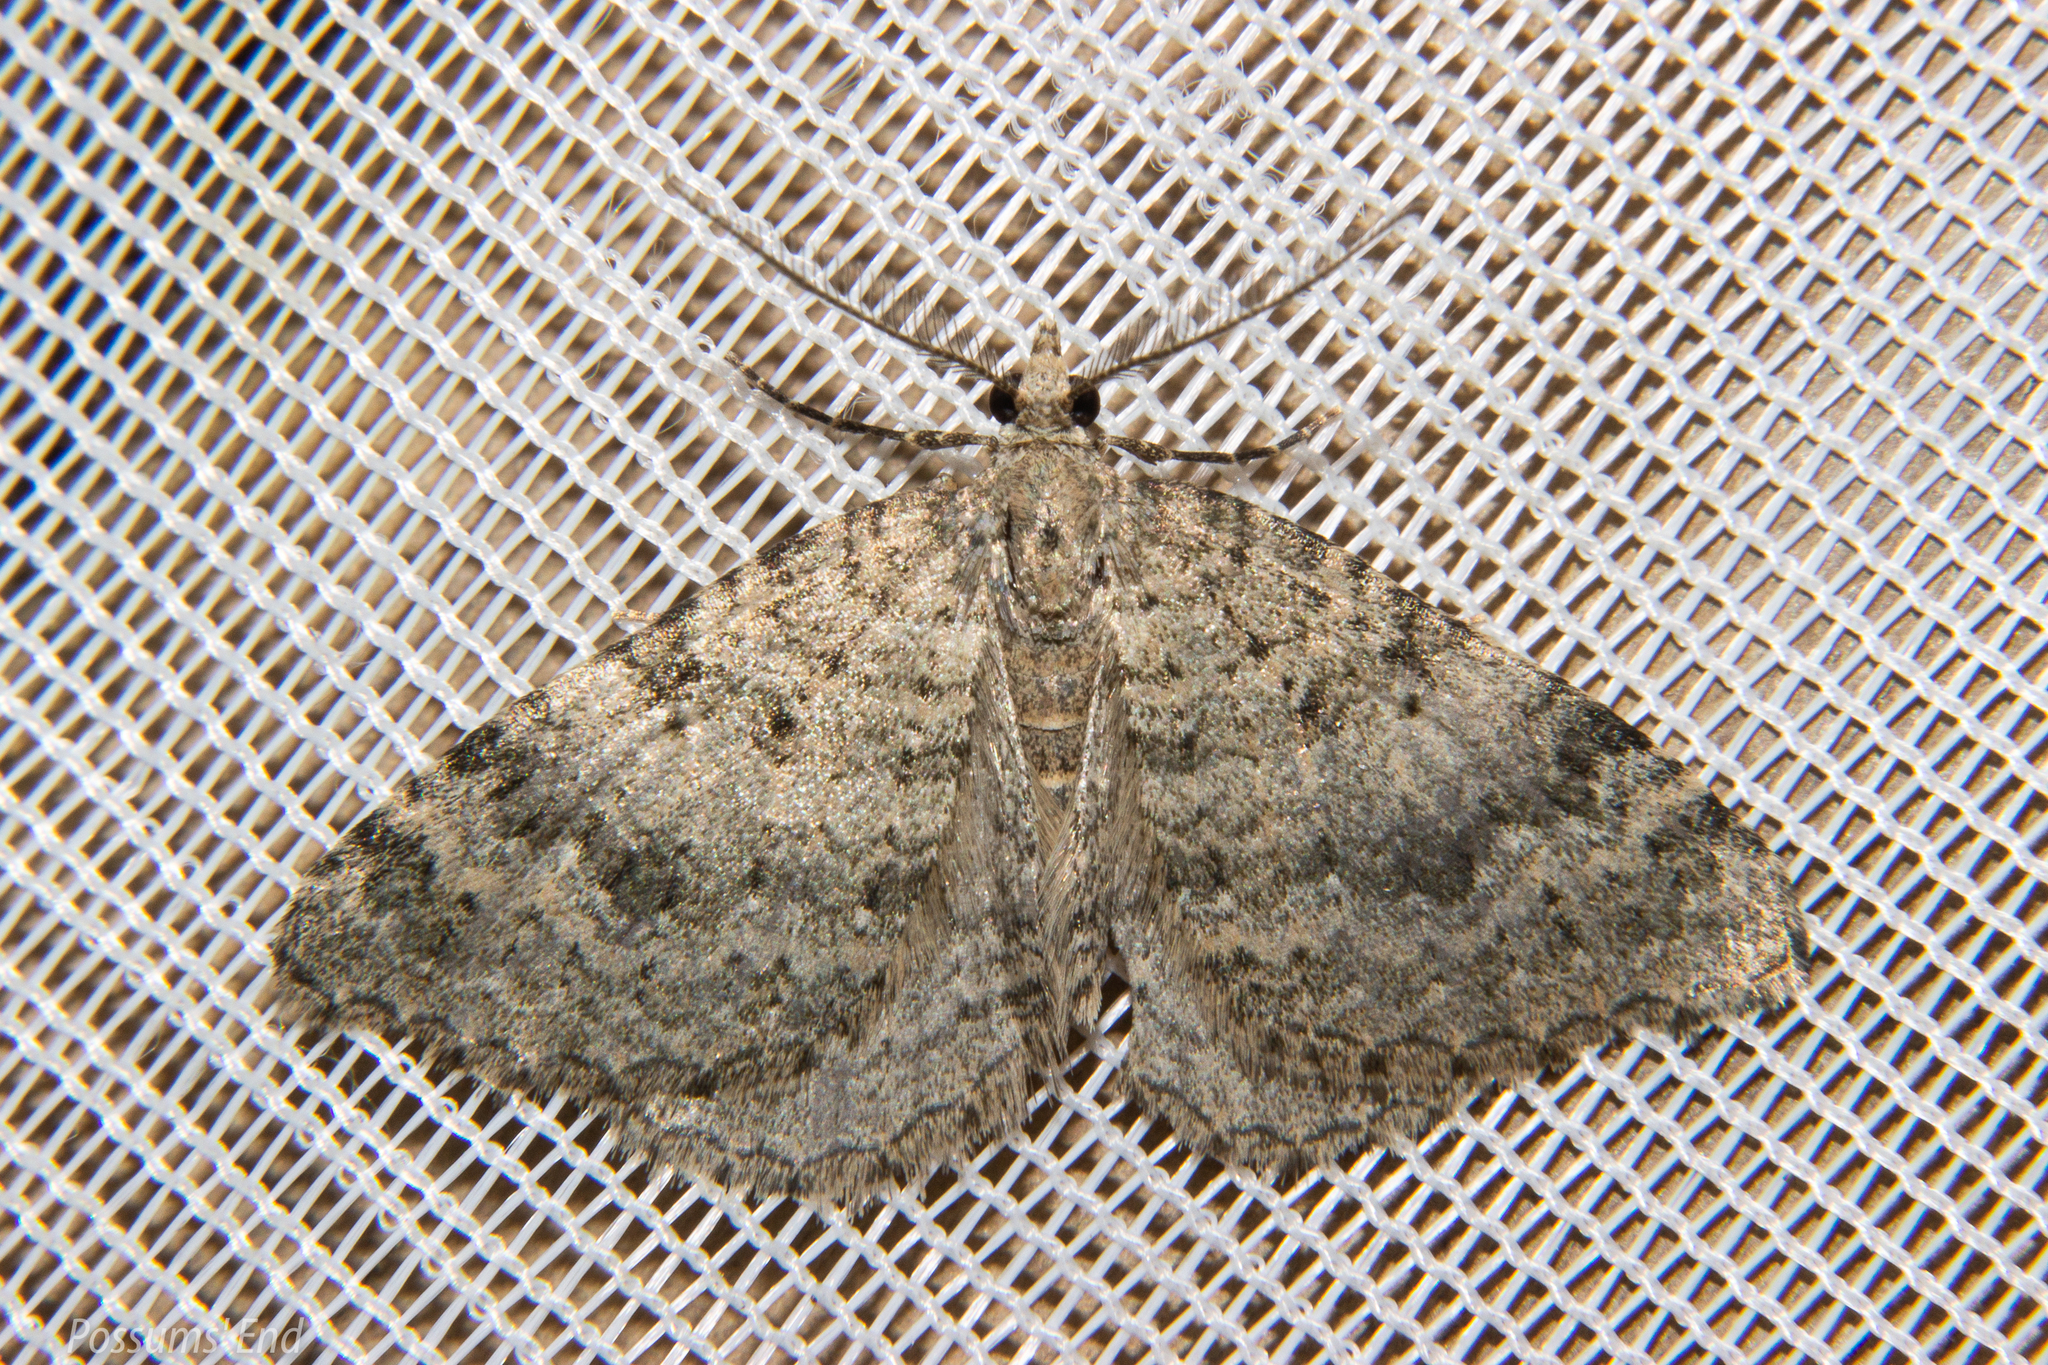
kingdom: Animalia
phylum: Arthropoda
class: Insecta
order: Lepidoptera
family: Geometridae
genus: Helastia
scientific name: Helastia corcularia
